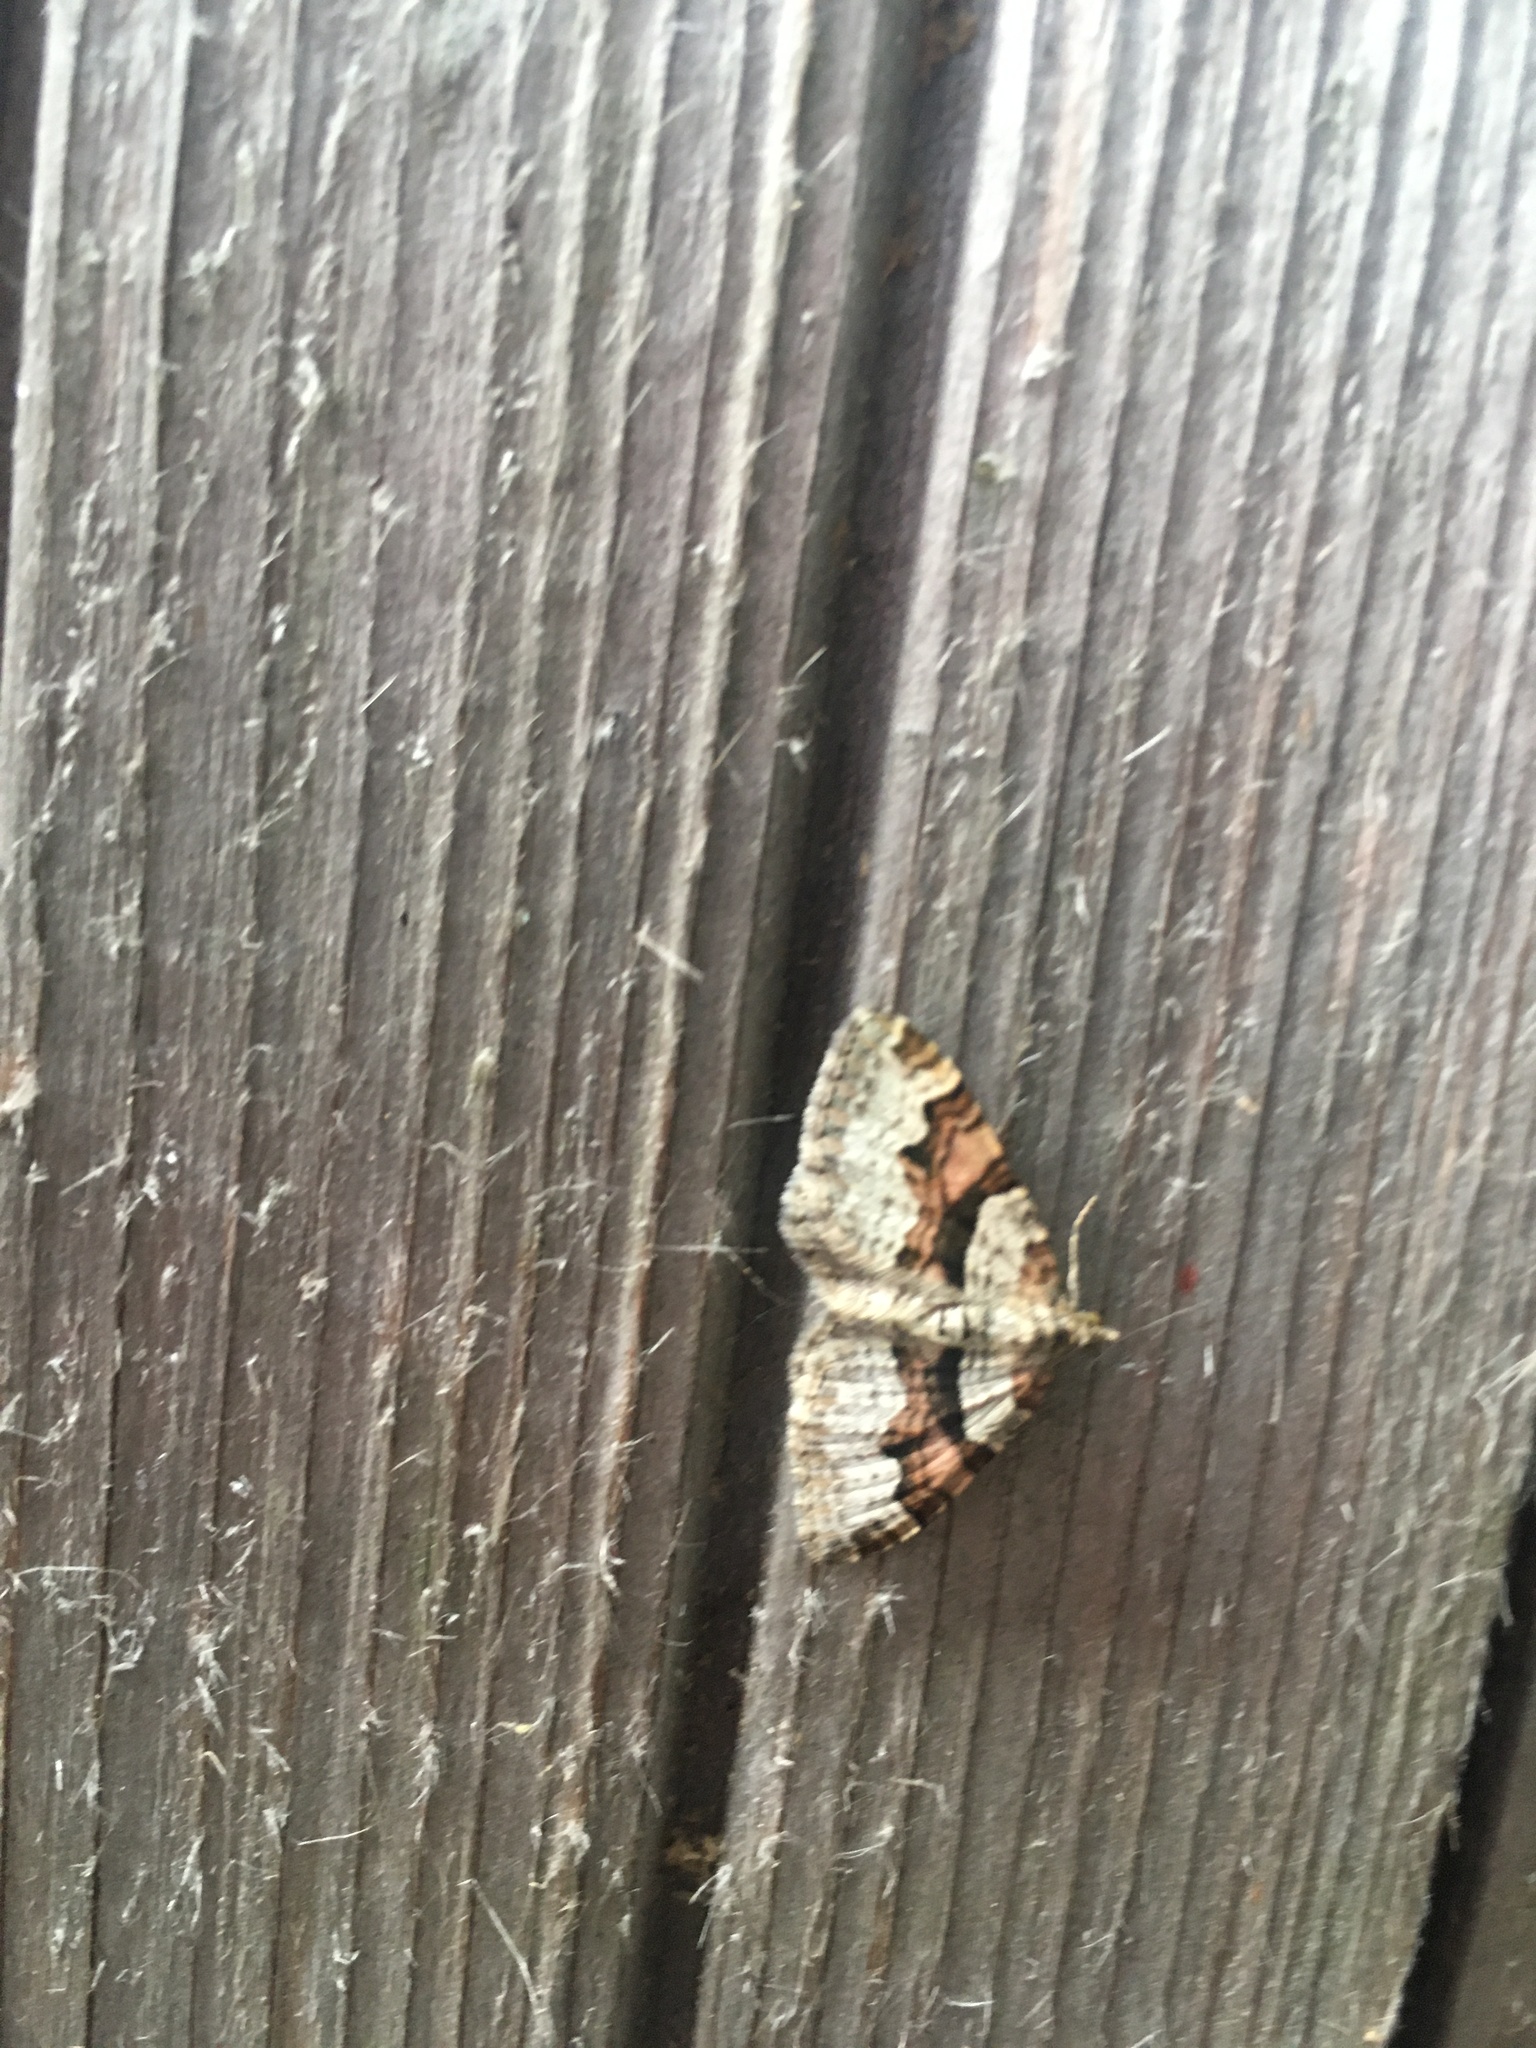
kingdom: Animalia
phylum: Arthropoda
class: Insecta
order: Lepidoptera
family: Geometridae
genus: Xanthorhoe
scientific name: Xanthorhoe designata
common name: Flame carpet
